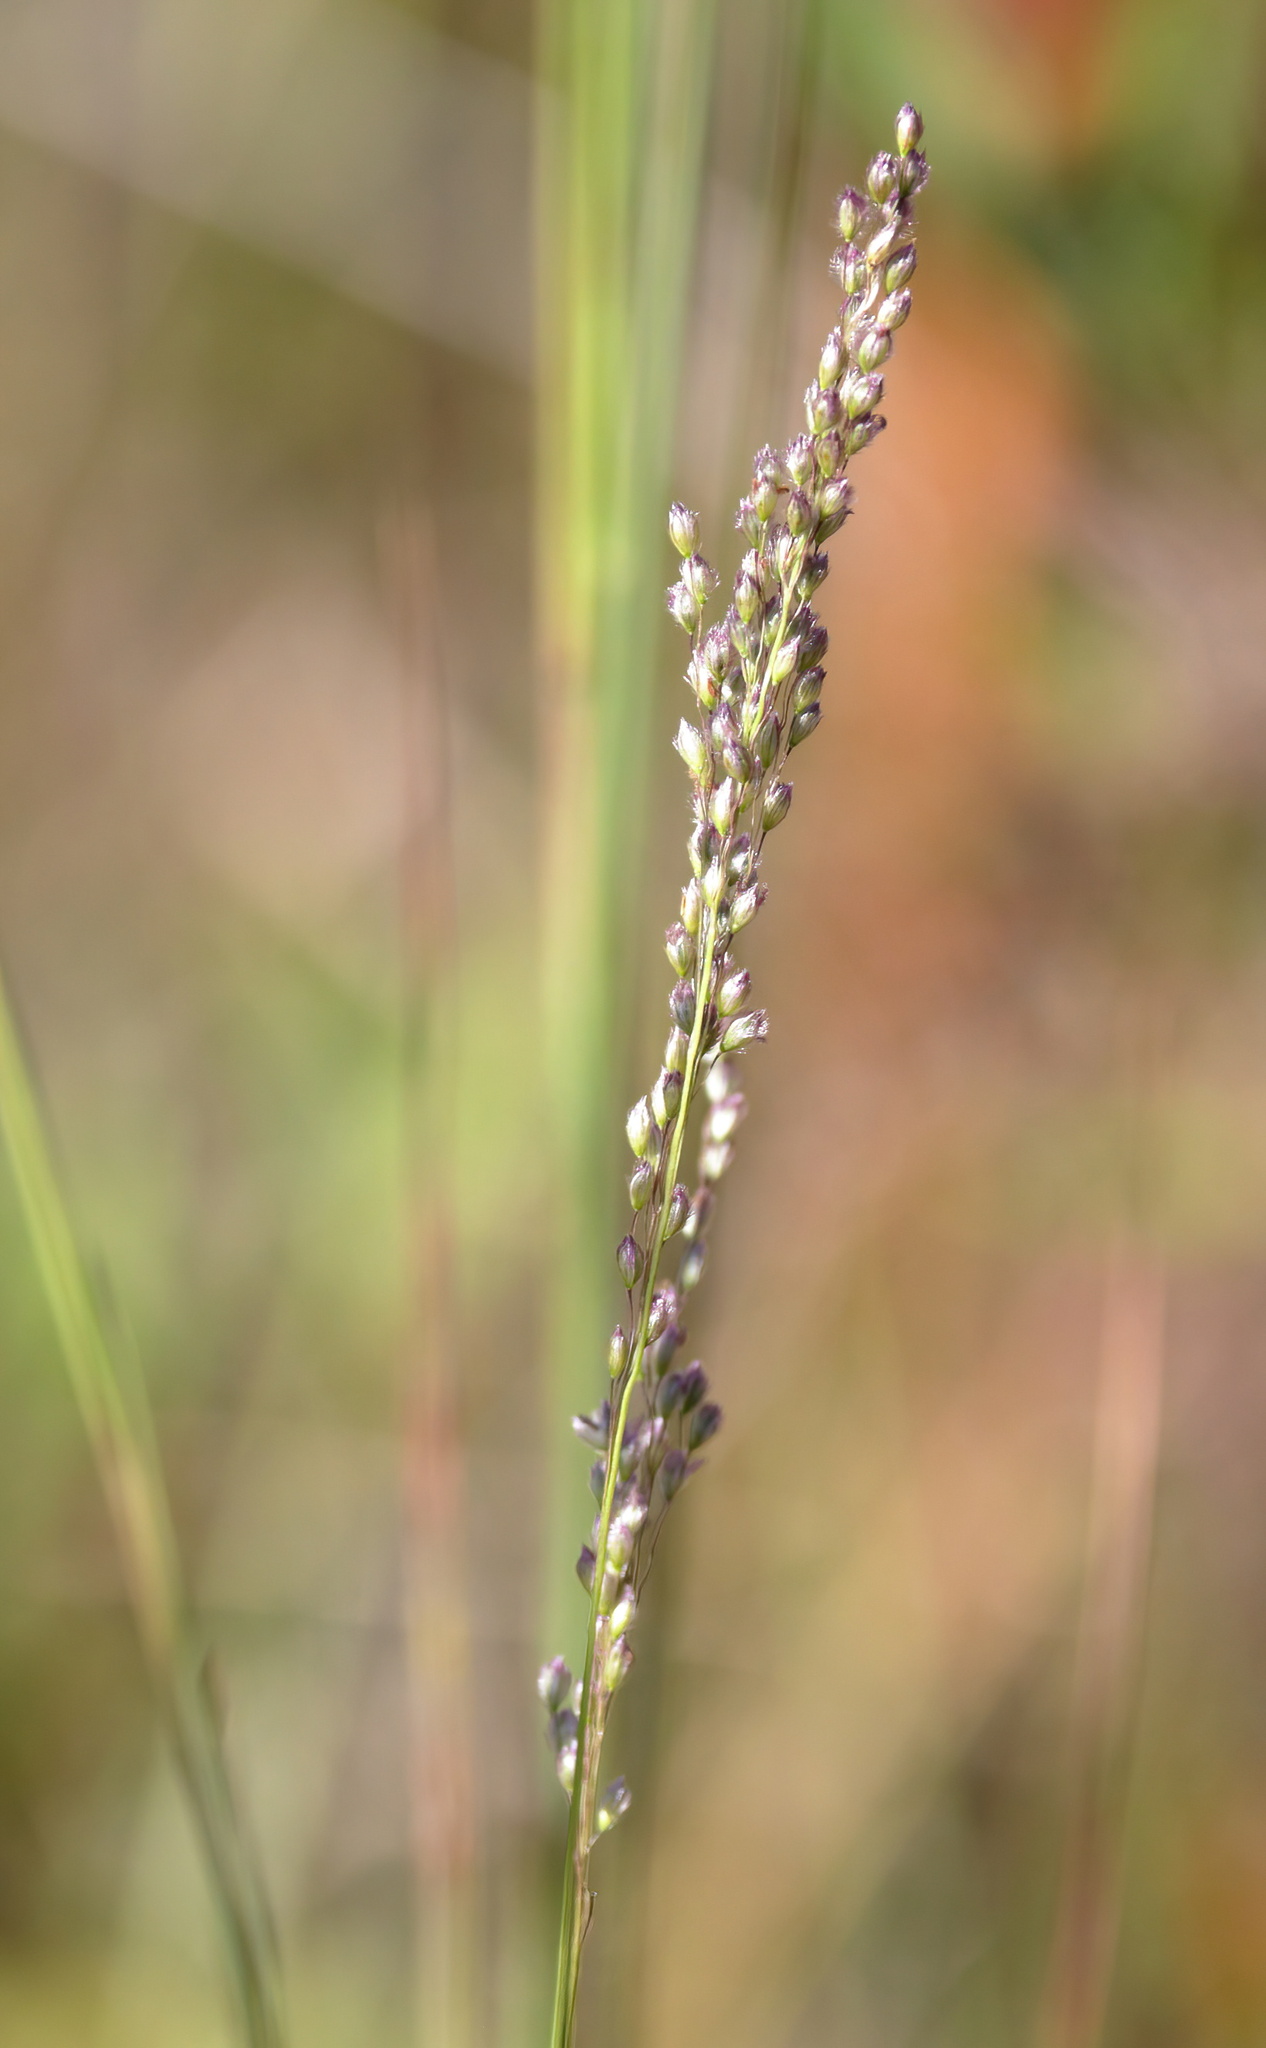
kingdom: Plantae
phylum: Tracheophyta
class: Liliopsida
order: Poales
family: Poaceae
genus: Anthenantia
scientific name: Anthenantia rufa
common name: Purple silkyscale
